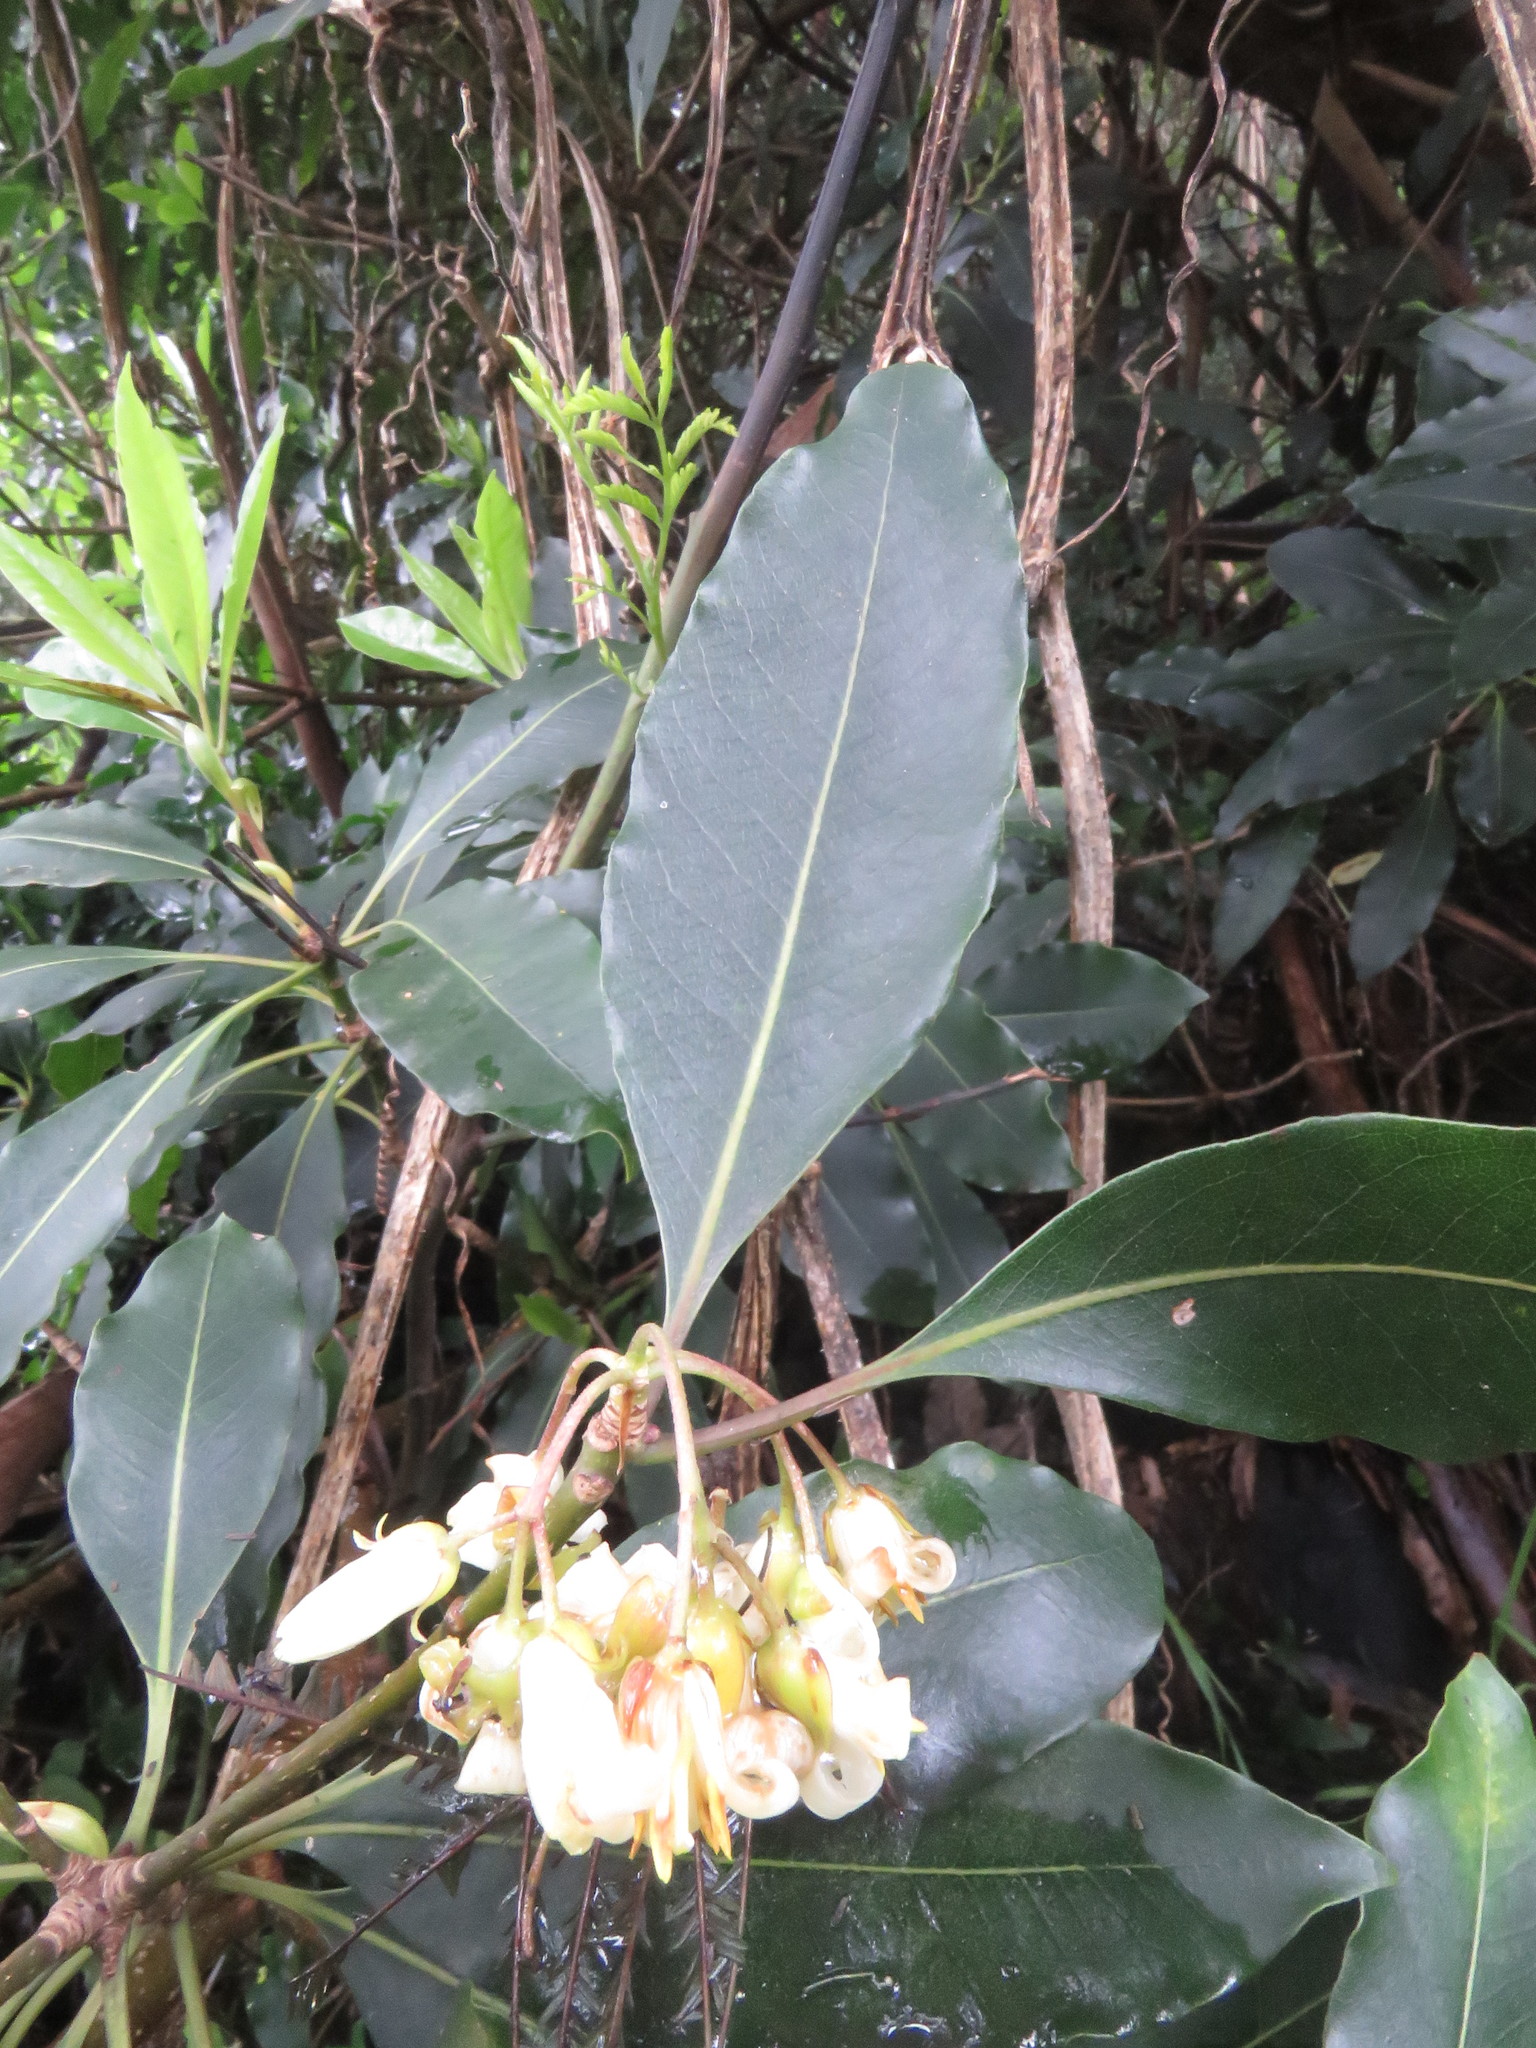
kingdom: Plantae
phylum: Tracheophyta
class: Magnoliopsida
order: Apiales
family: Pittosporaceae
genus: Pittosporum
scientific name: Pittosporum undulatum
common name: Australian cheesewood
